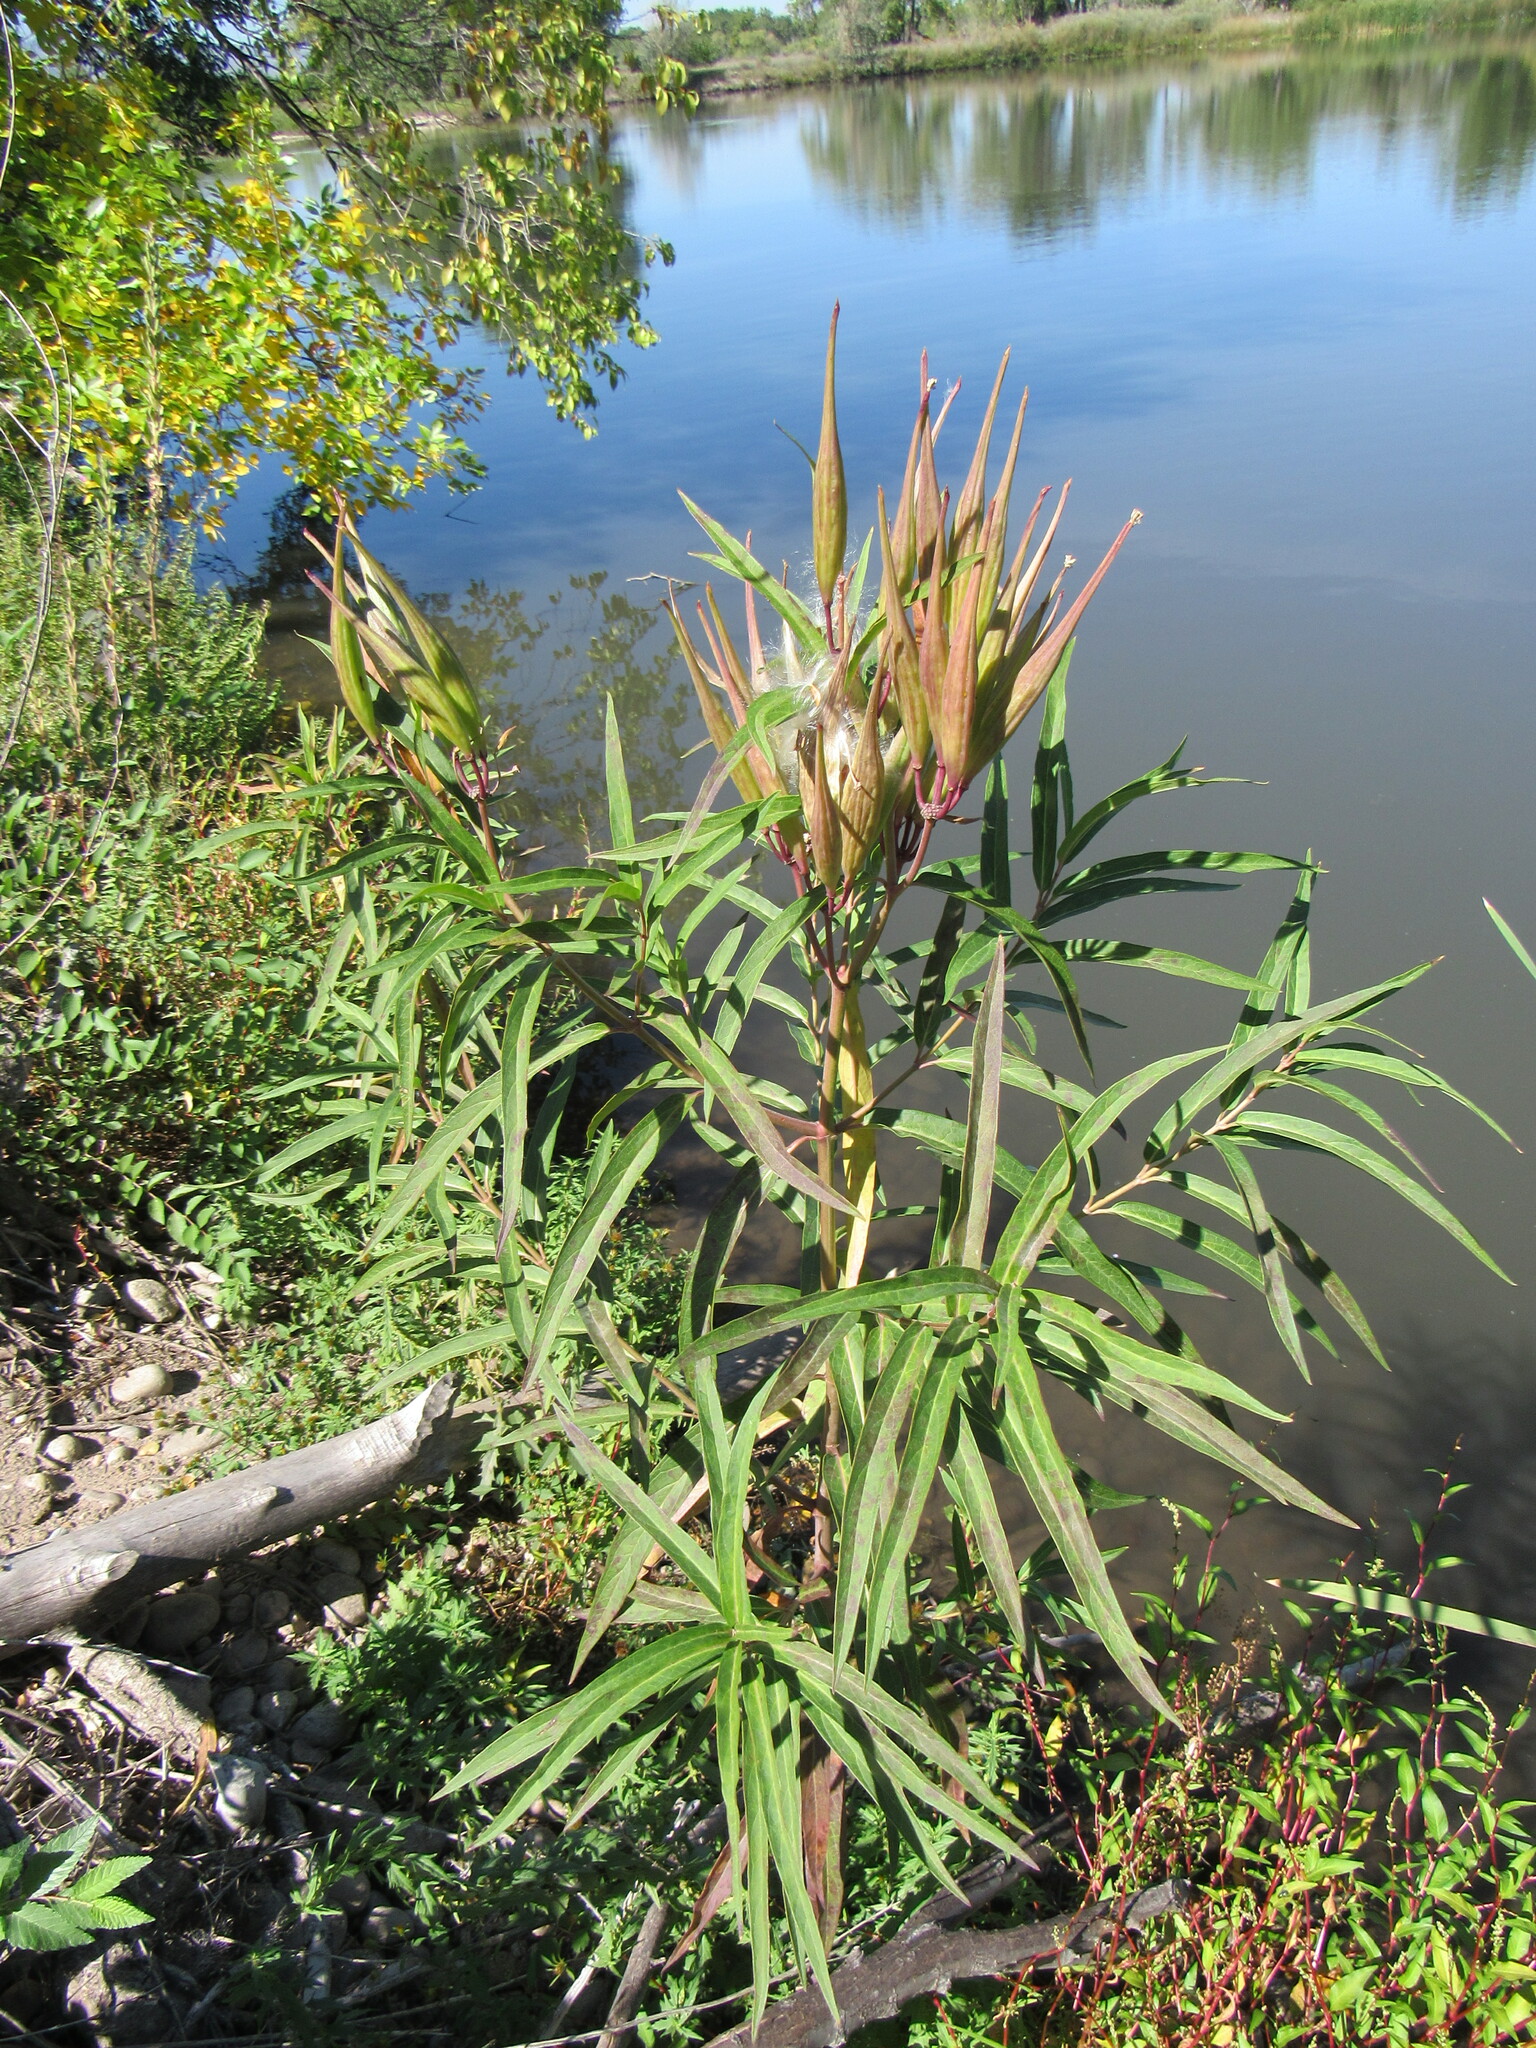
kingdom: Plantae
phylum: Tracheophyta
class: Magnoliopsida
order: Gentianales
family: Apocynaceae
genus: Asclepias
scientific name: Asclepias incarnata
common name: Swamp milkweed
